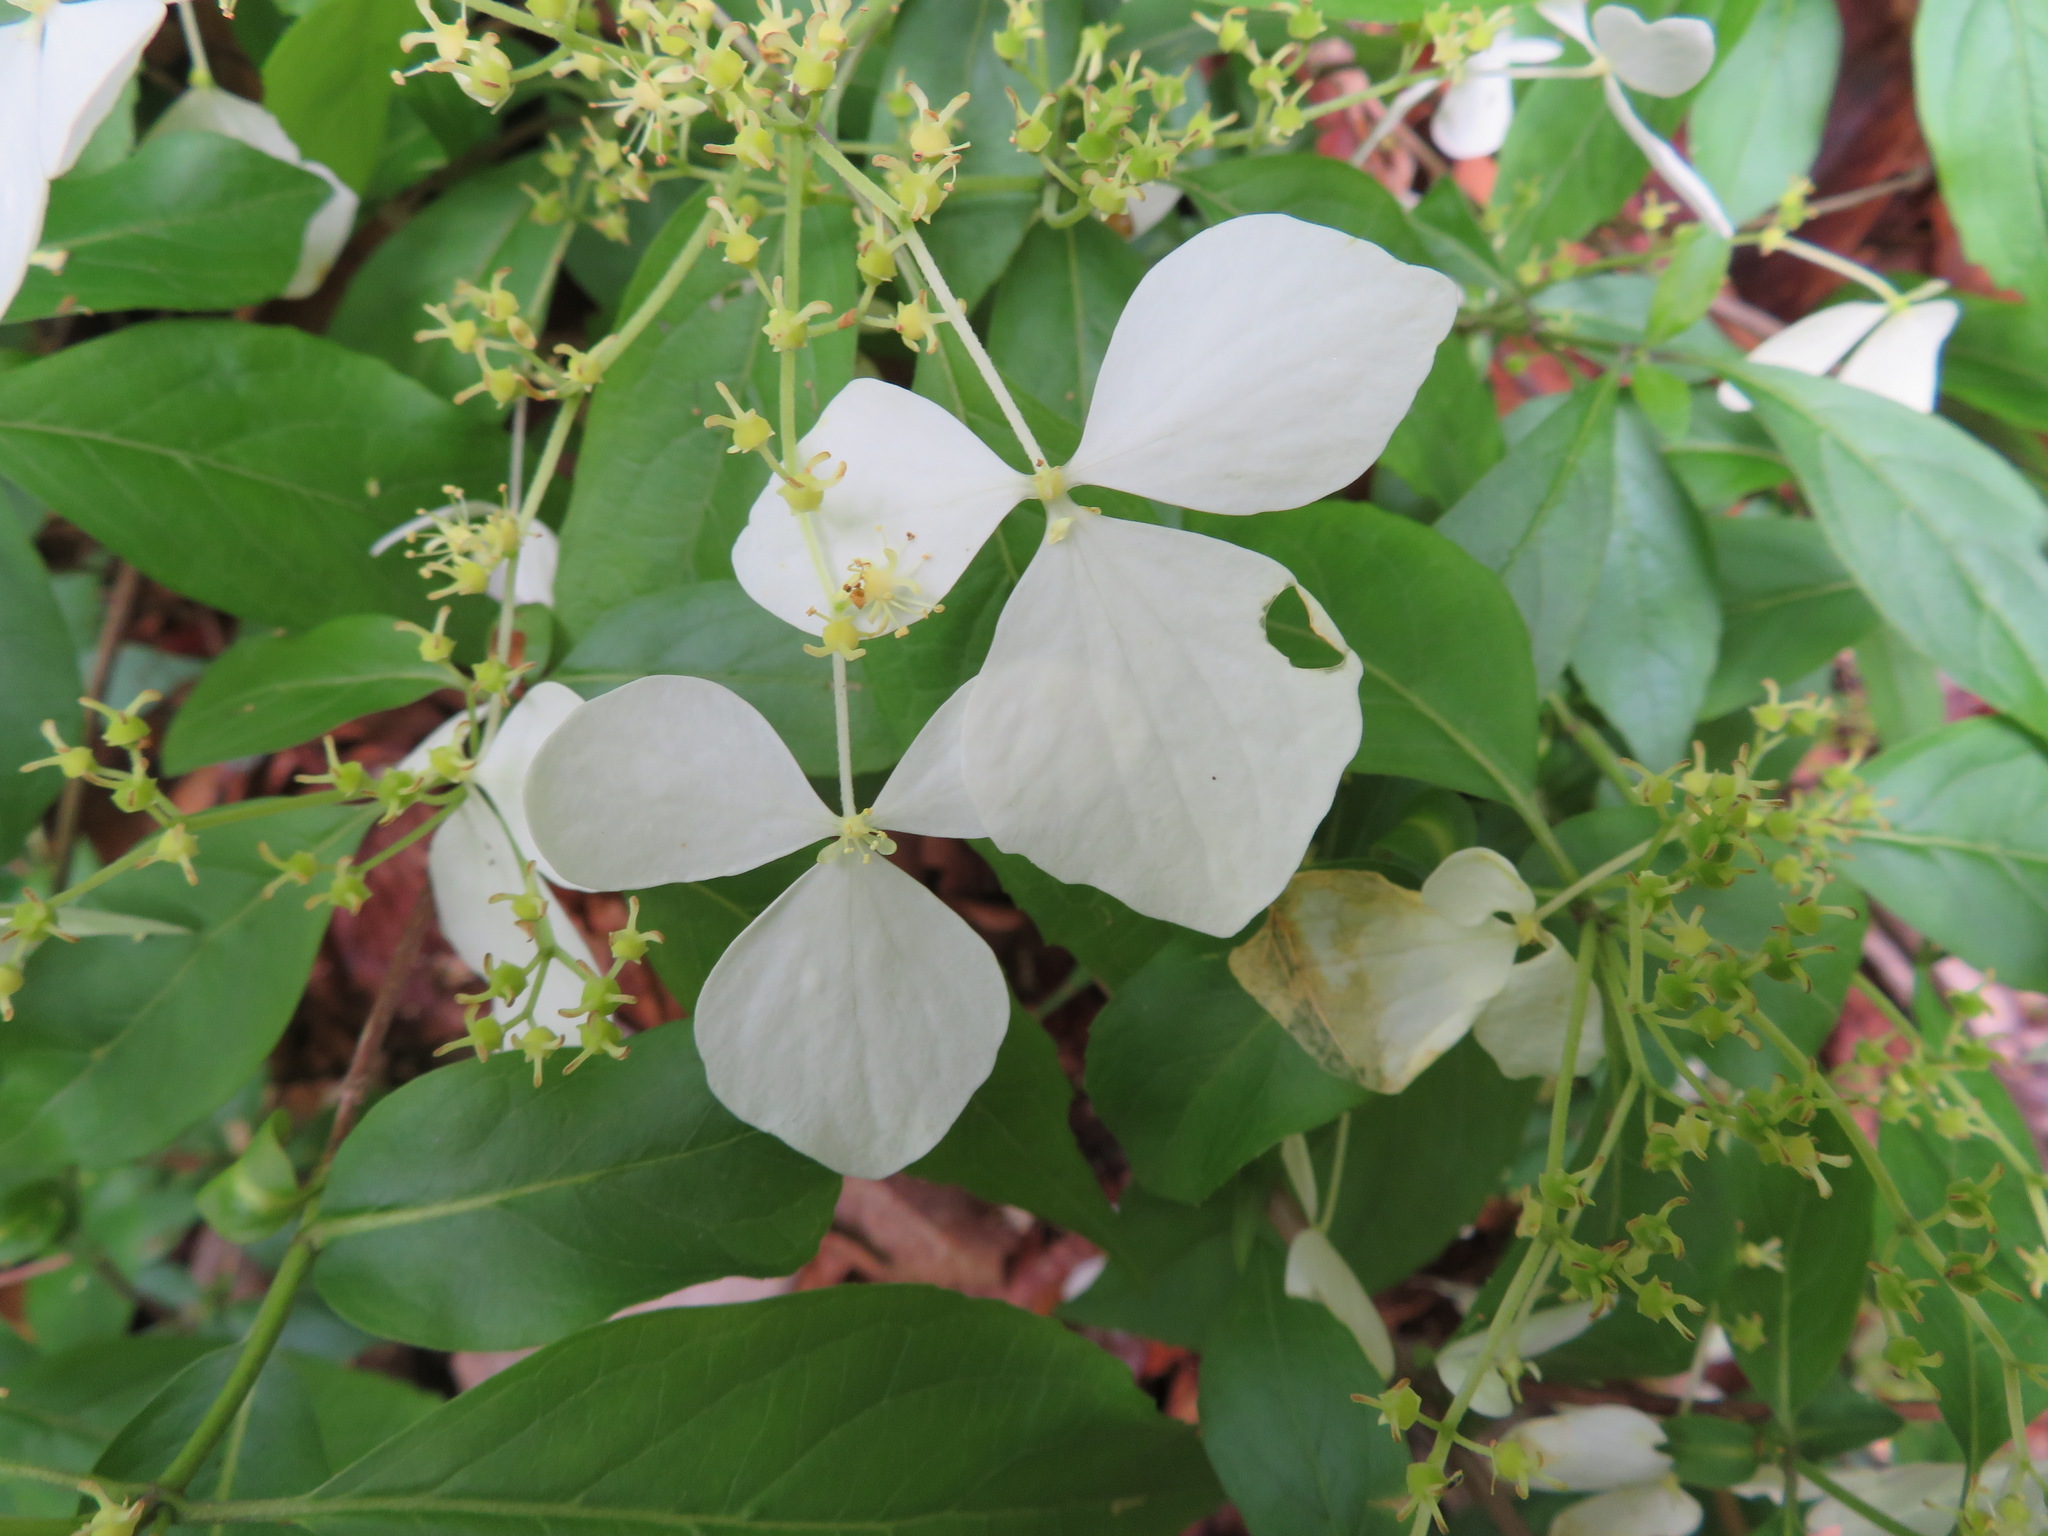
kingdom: Plantae
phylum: Tracheophyta
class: Magnoliopsida
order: Cornales
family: Hydrangeaceae
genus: Hydrangea
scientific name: Hydrangea scandens
